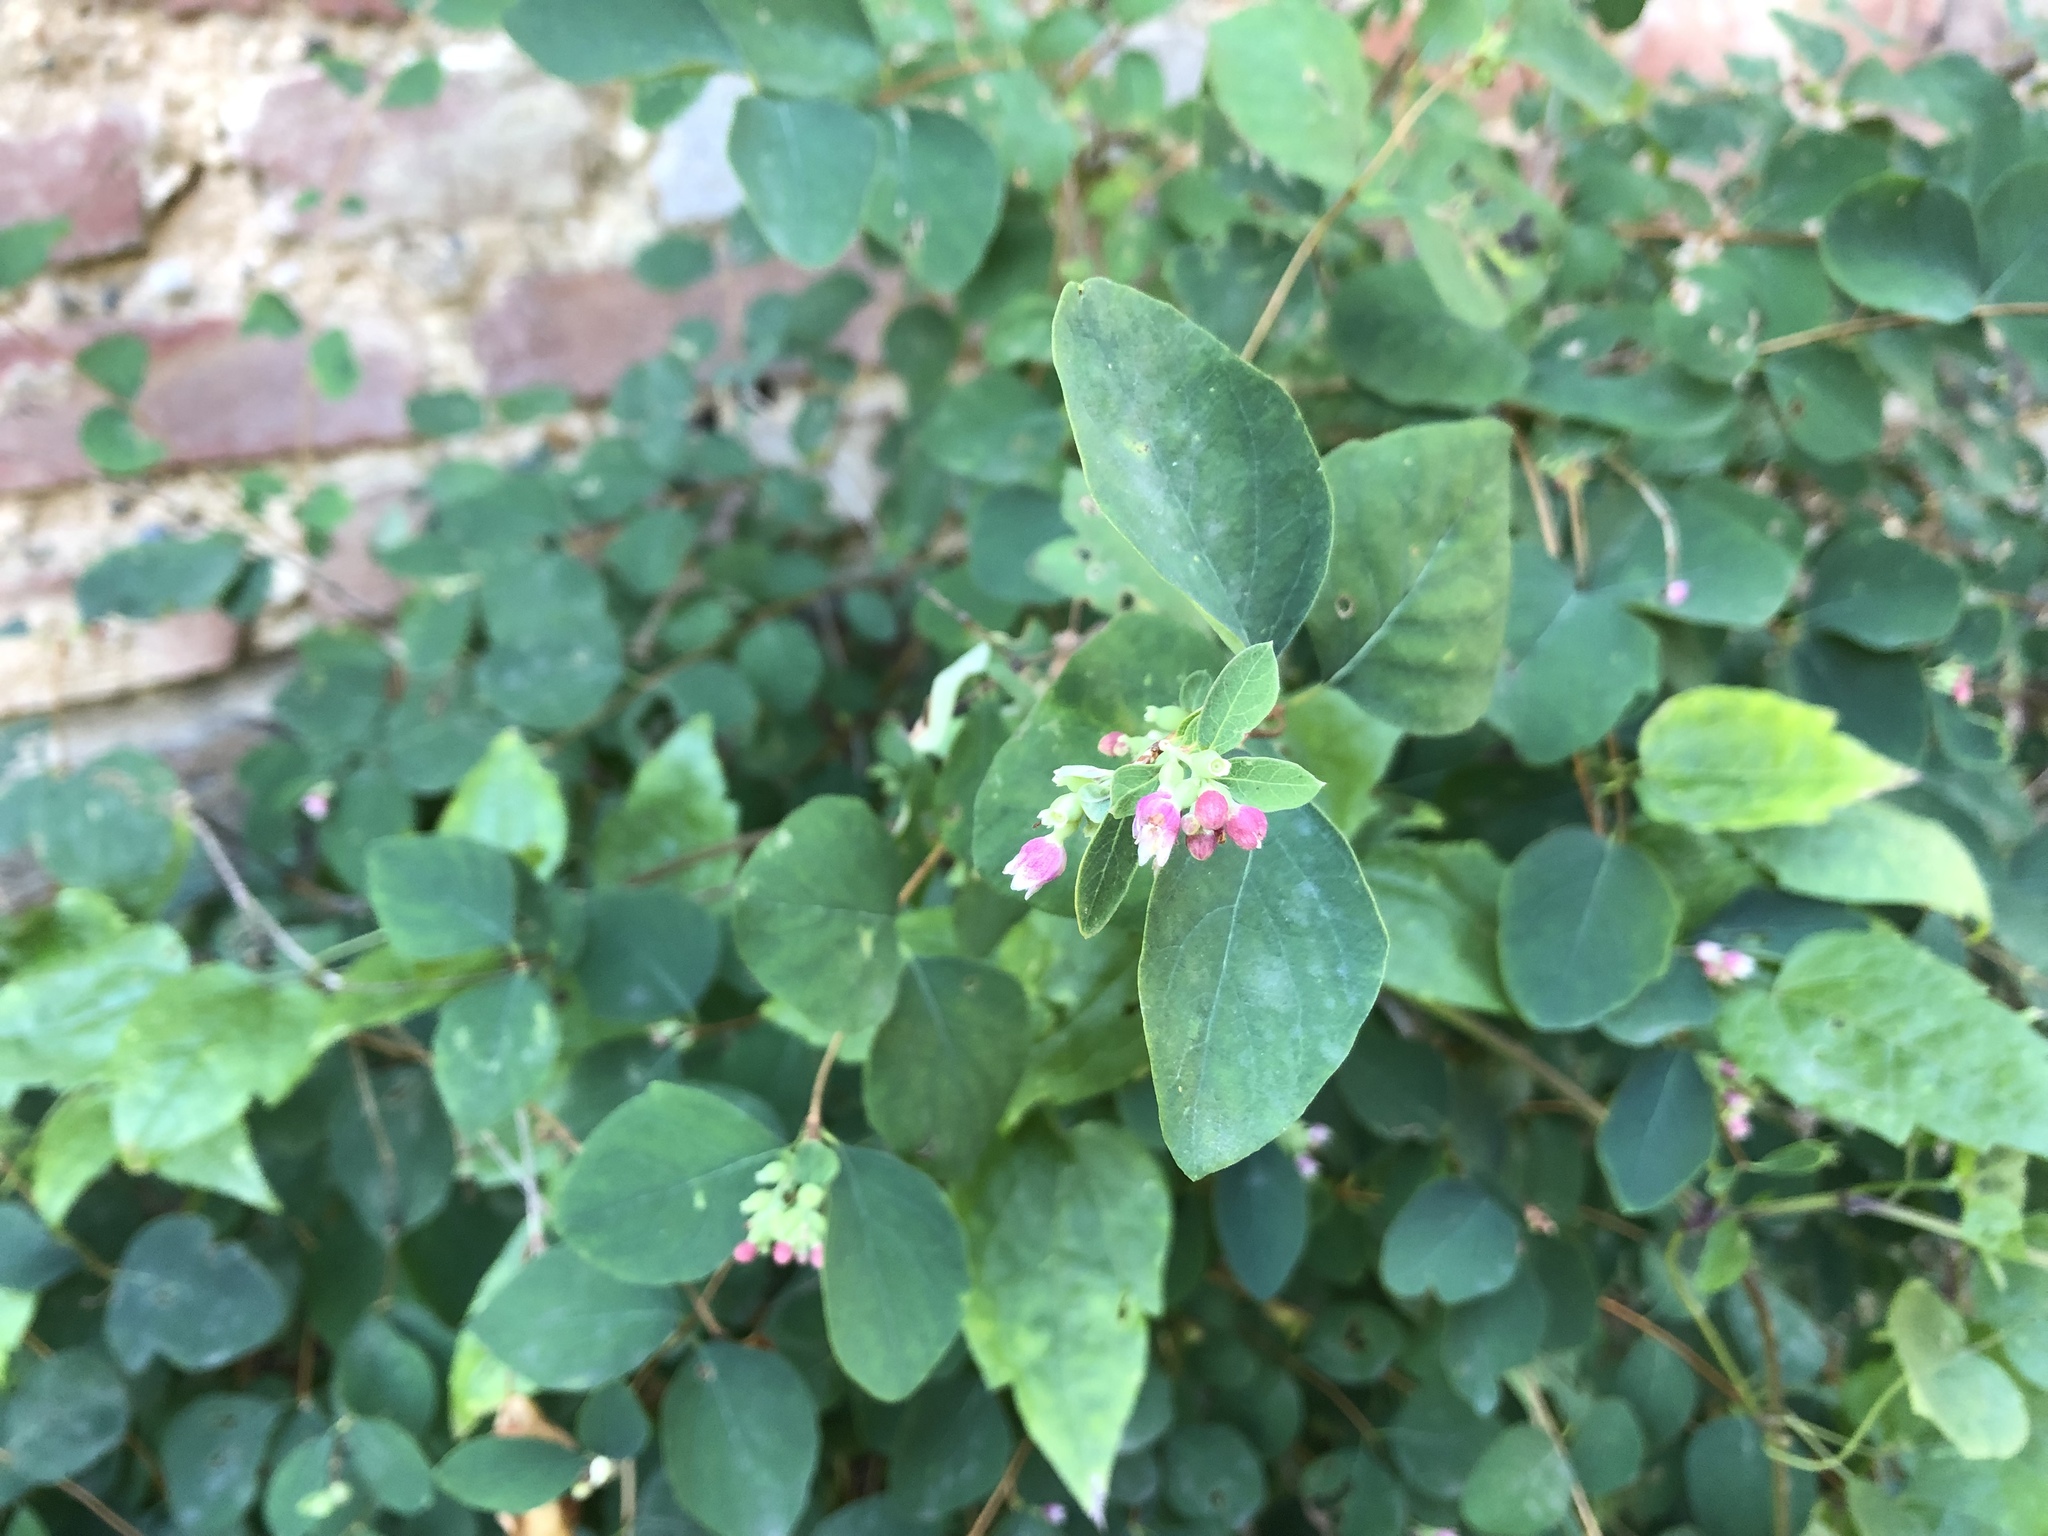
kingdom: Plantae
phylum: Tracheophyta
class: Magnoliopsida
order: Dipsacales
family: Caprifoliaceae
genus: Symphoricarpos
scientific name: Symphoricarpos albus
